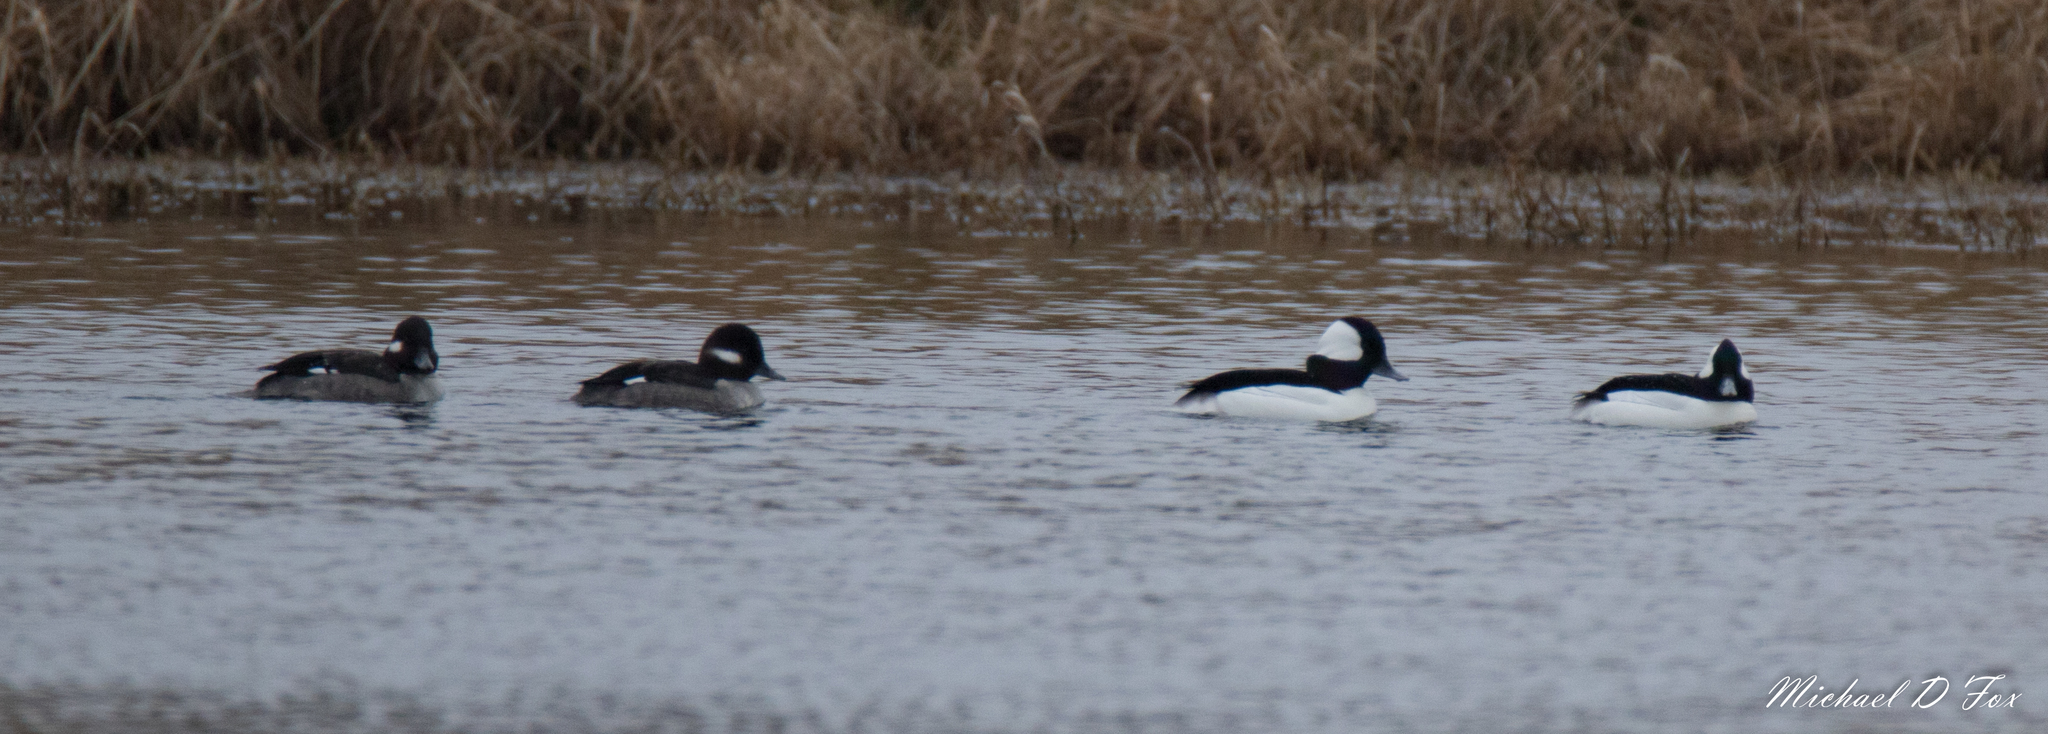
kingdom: Animalia
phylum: Chordata
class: Aves
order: Anseriformes
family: Anatidae
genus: Bucephala
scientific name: Bucephala albeola
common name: Bufflehead
